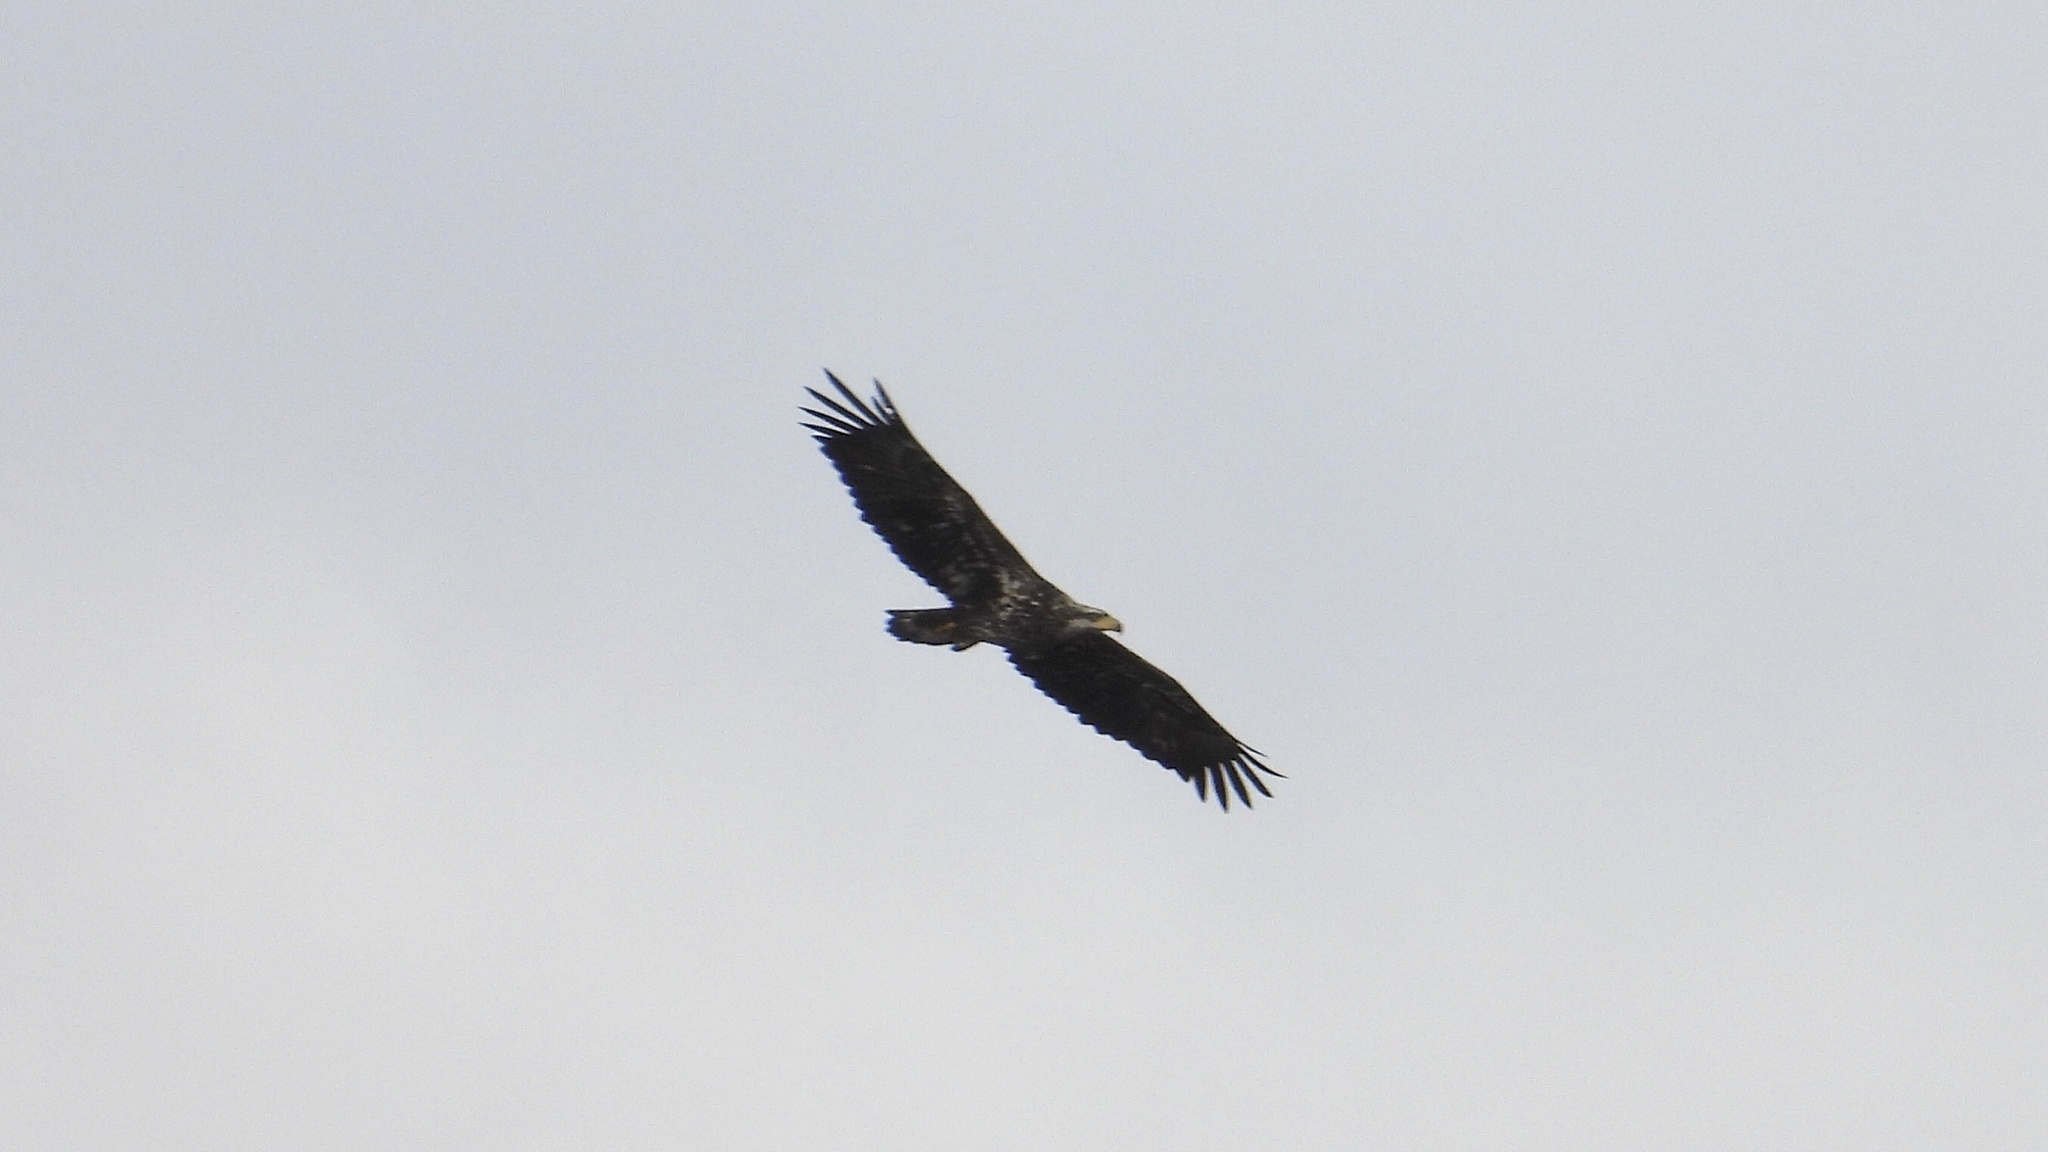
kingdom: Animalia
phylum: Chordata
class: Aves
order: Accipitriformes
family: Accipitridae
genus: Haliaeetus
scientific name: Haliaeetus leucocephalus
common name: Bald eagle
